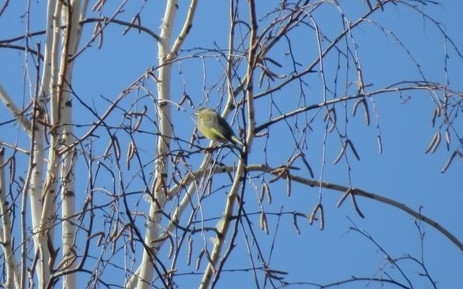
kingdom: Plantae
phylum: Tracheophyta
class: Liliopsida
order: Poales
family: Poaceae
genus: Chloris
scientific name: Chloris chloris
